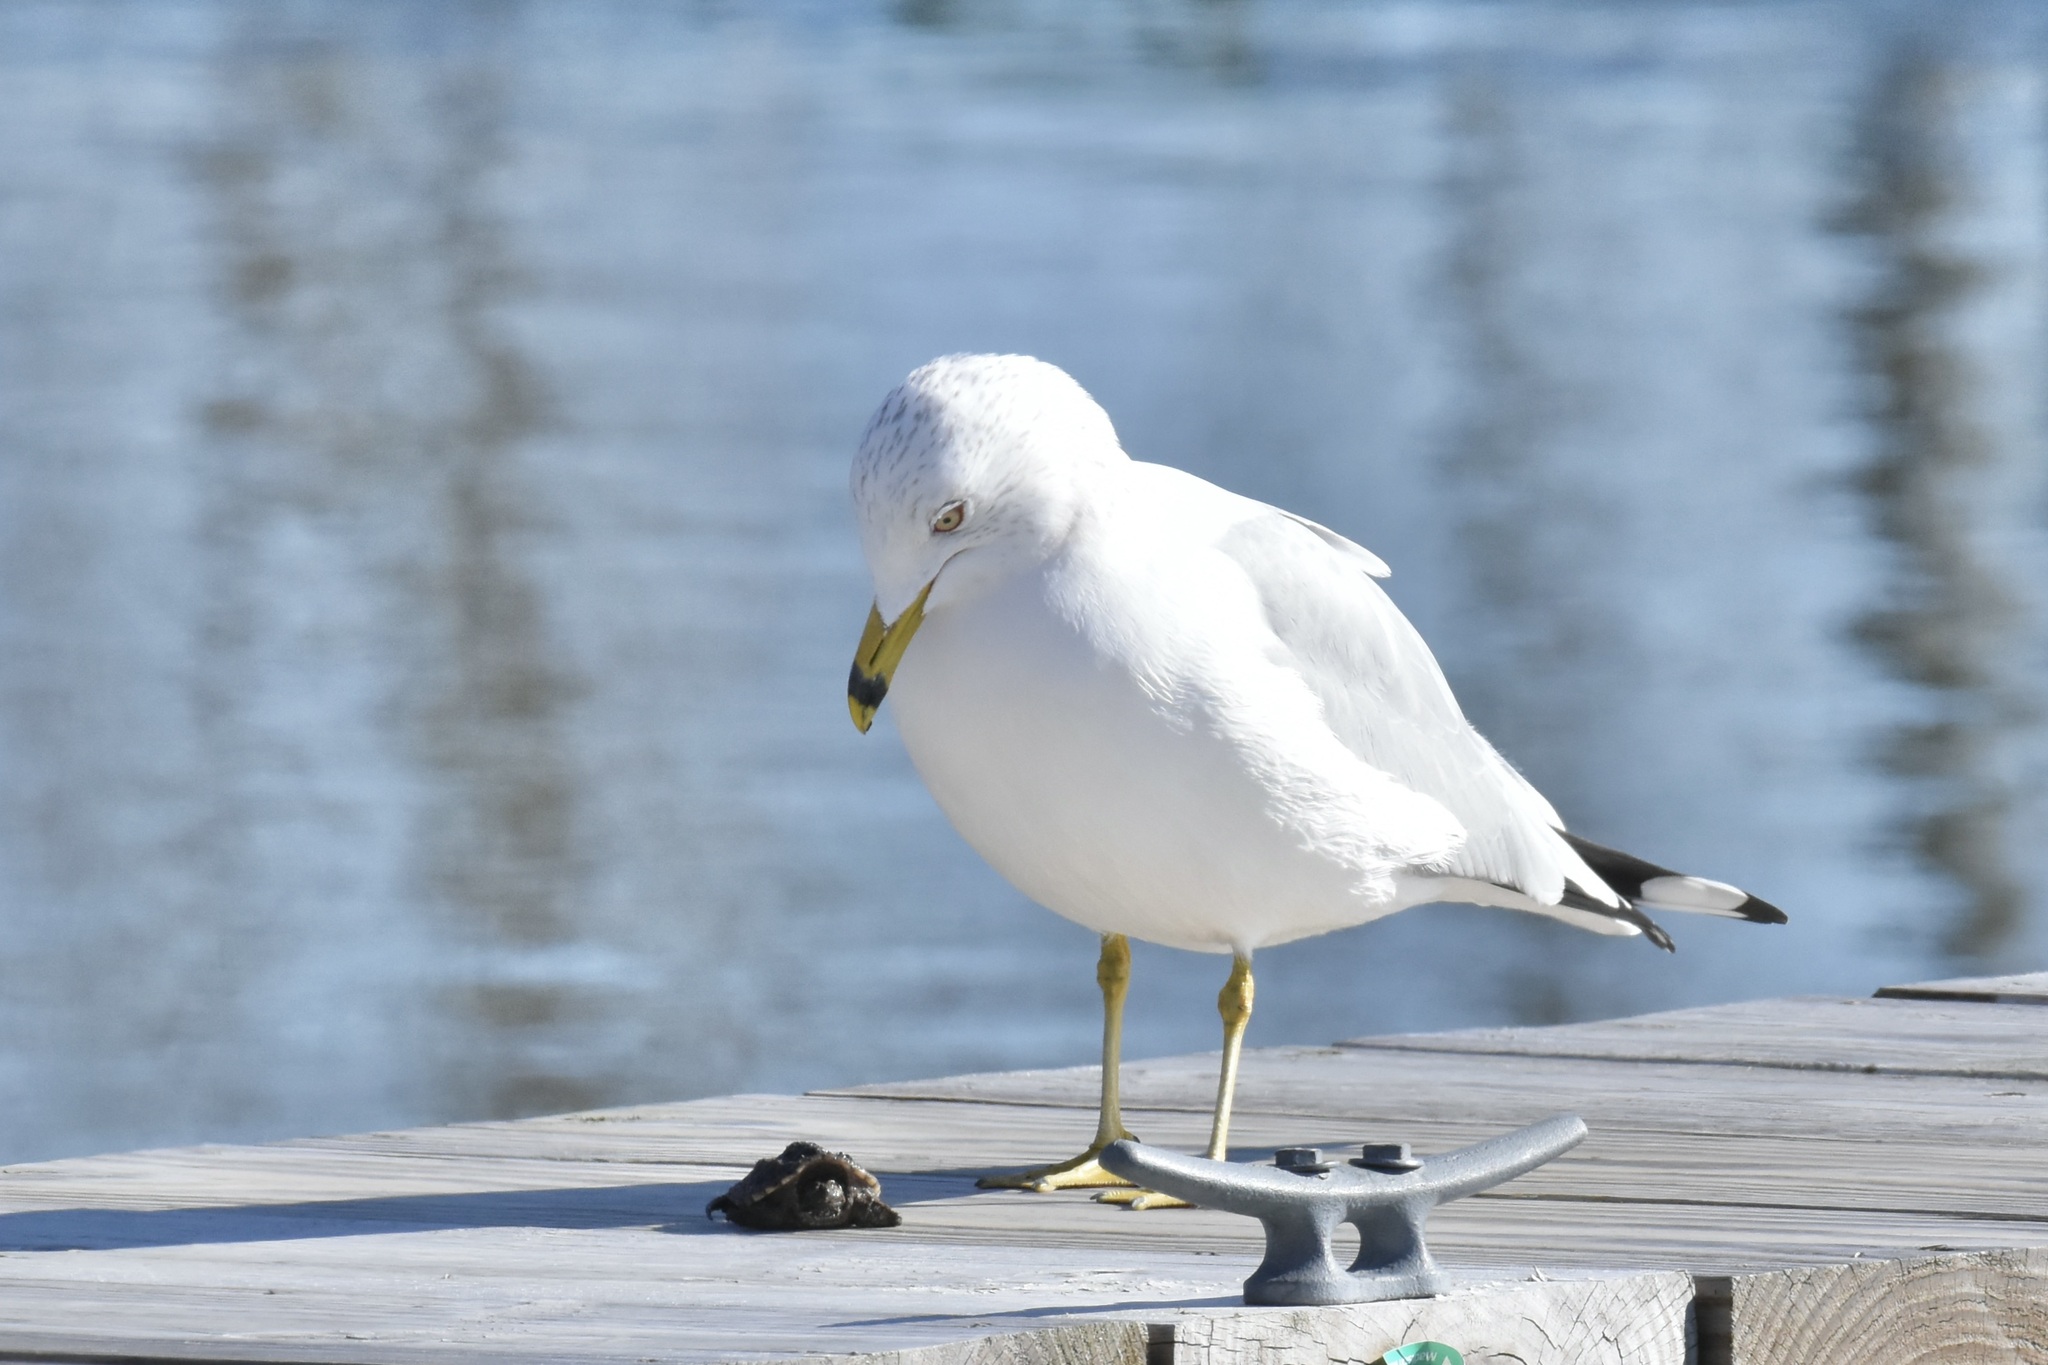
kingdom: Animalia
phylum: Chordata
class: Testudines
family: Chelydridae
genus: Chelydra
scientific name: Chelydra serpentina
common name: Common snapping turtle
